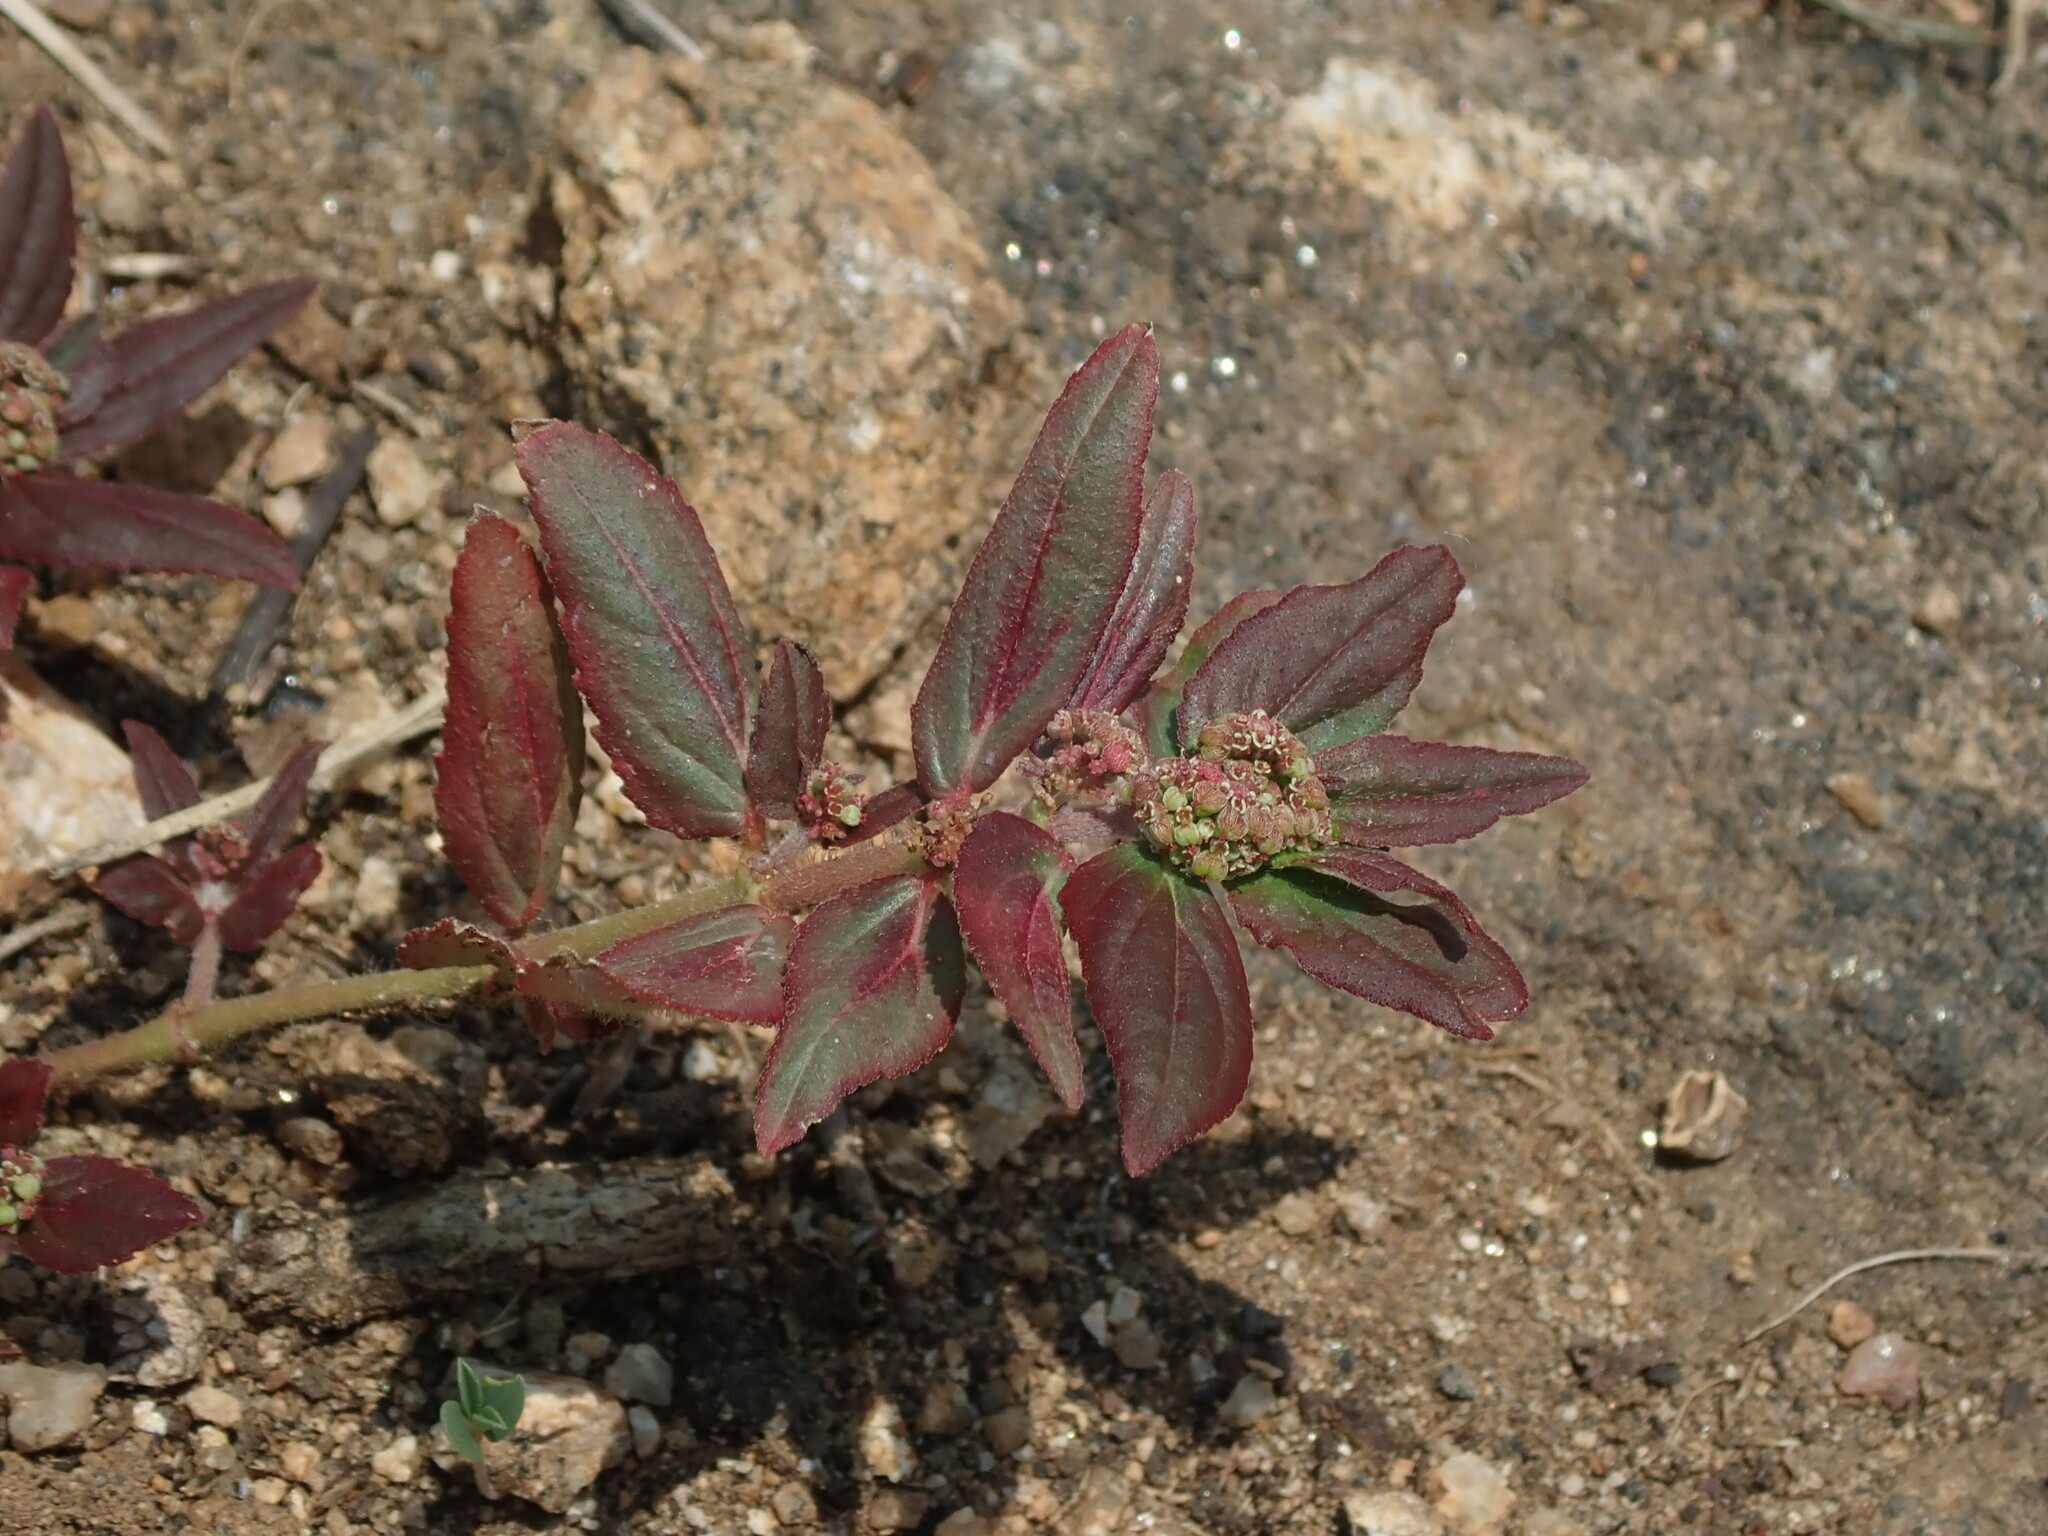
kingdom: Plantae
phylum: Tracheophyta
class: Magnoliopsida
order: Malpighiales
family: Euphorbiaceae
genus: Euphorbia
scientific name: Euphorbia hirta
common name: Pillpod sandmat
